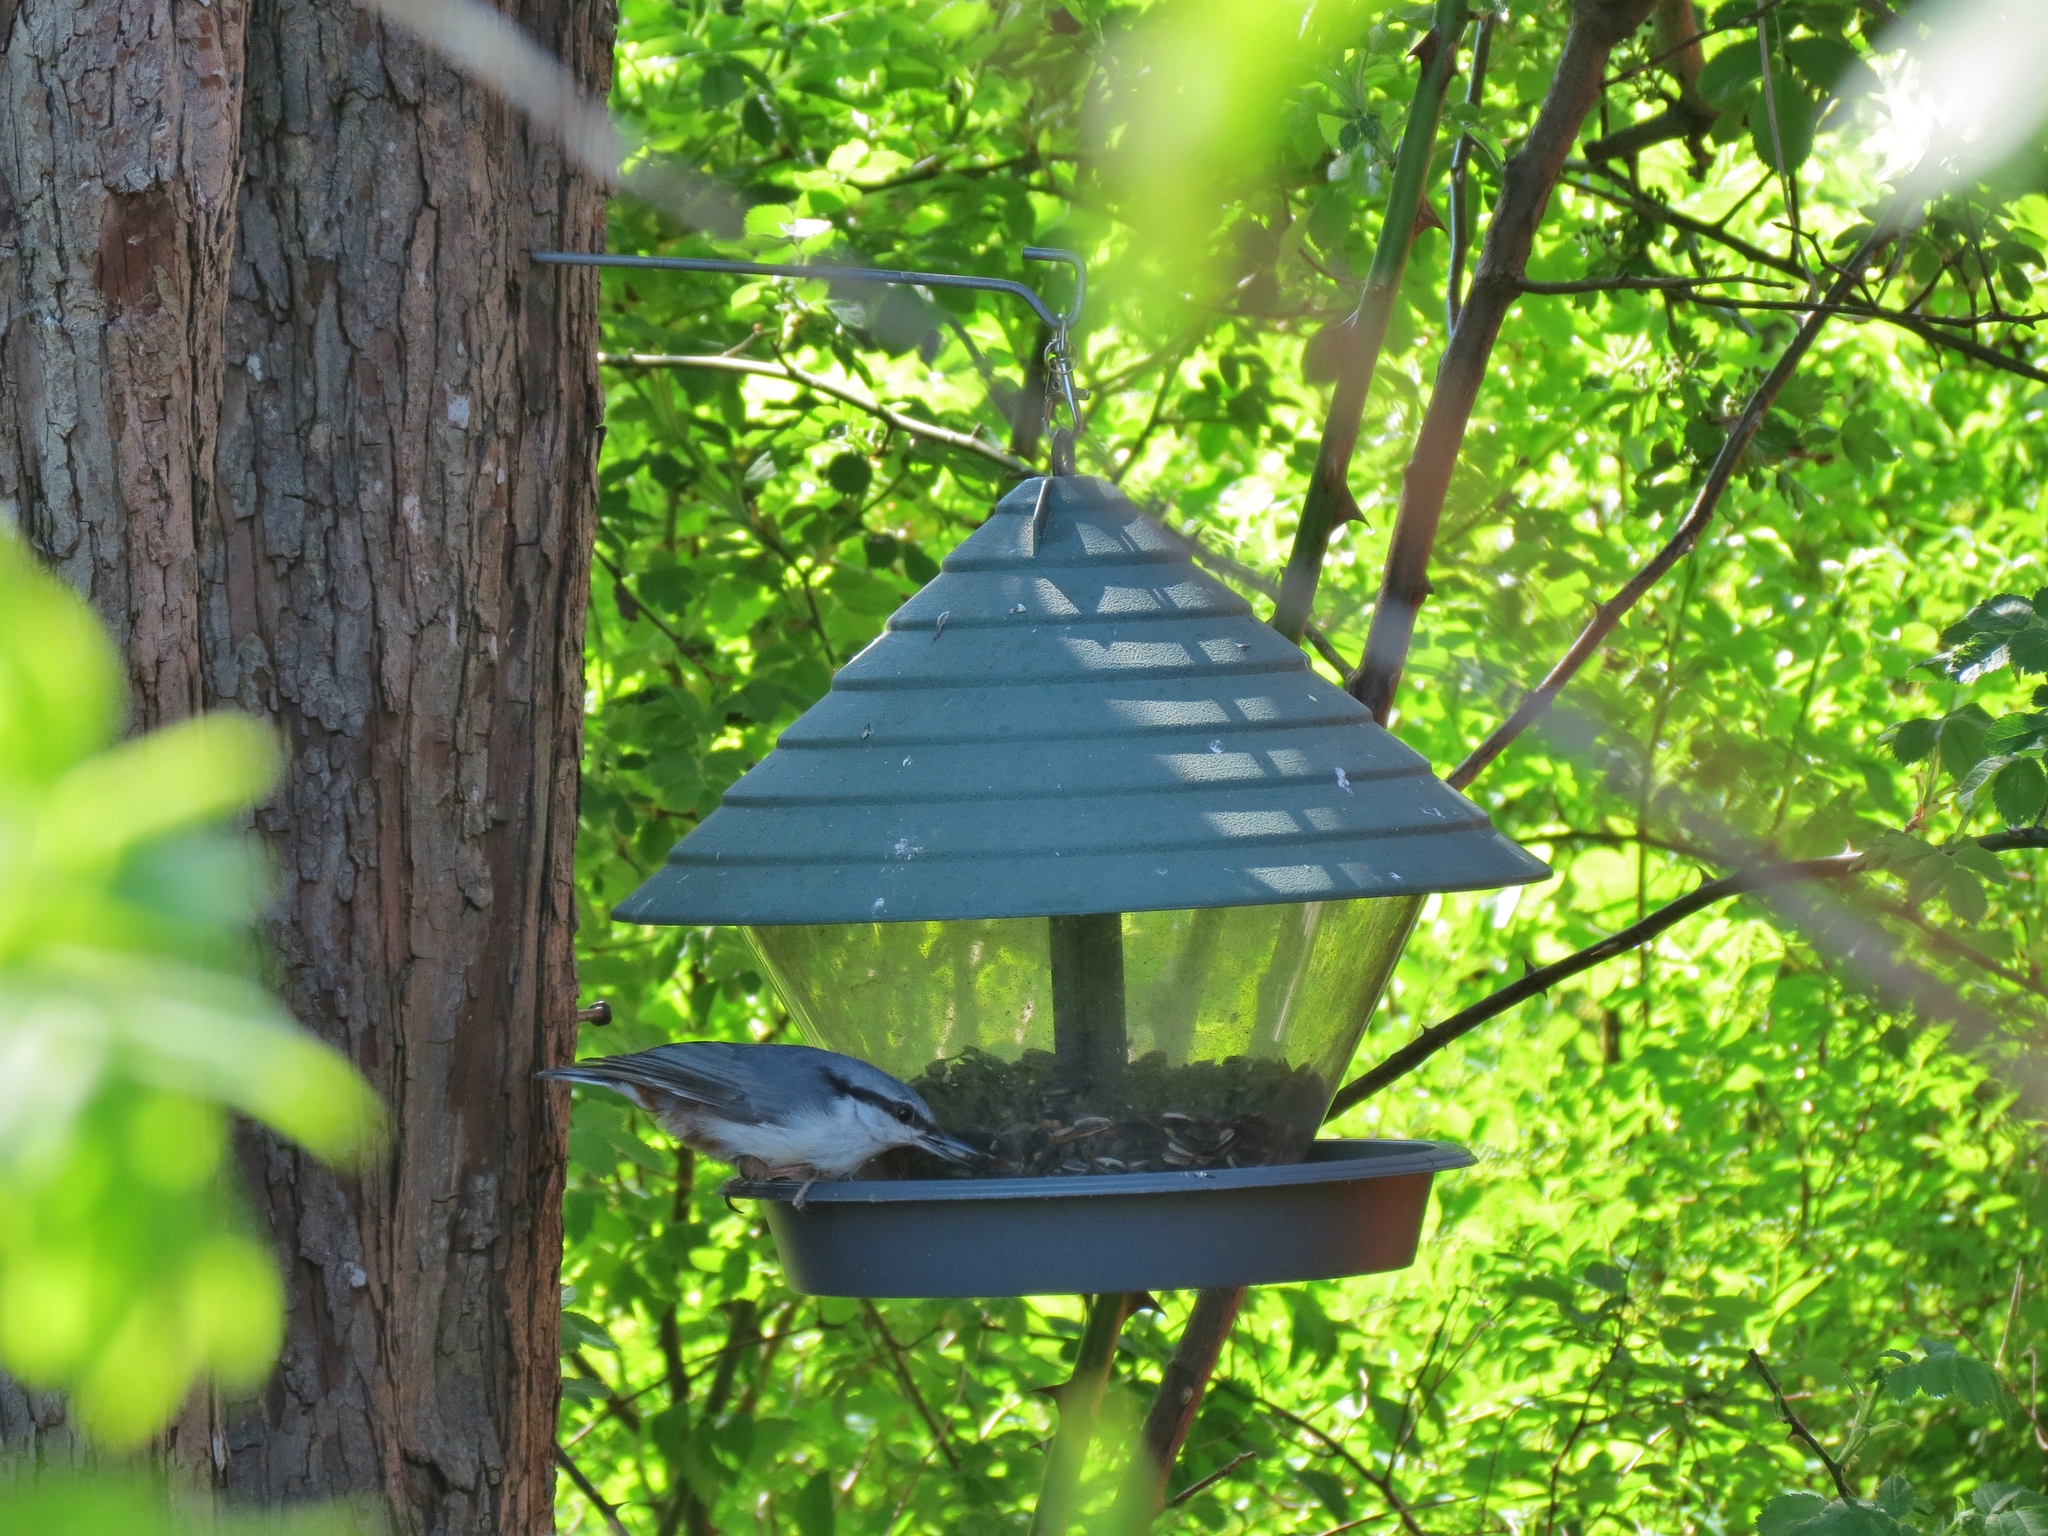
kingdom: Animalia
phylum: Chordata
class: Aves
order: Passeriformes
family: Sittidae
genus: Sitta
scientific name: Sitta europaea
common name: Eurasian nuthatch
